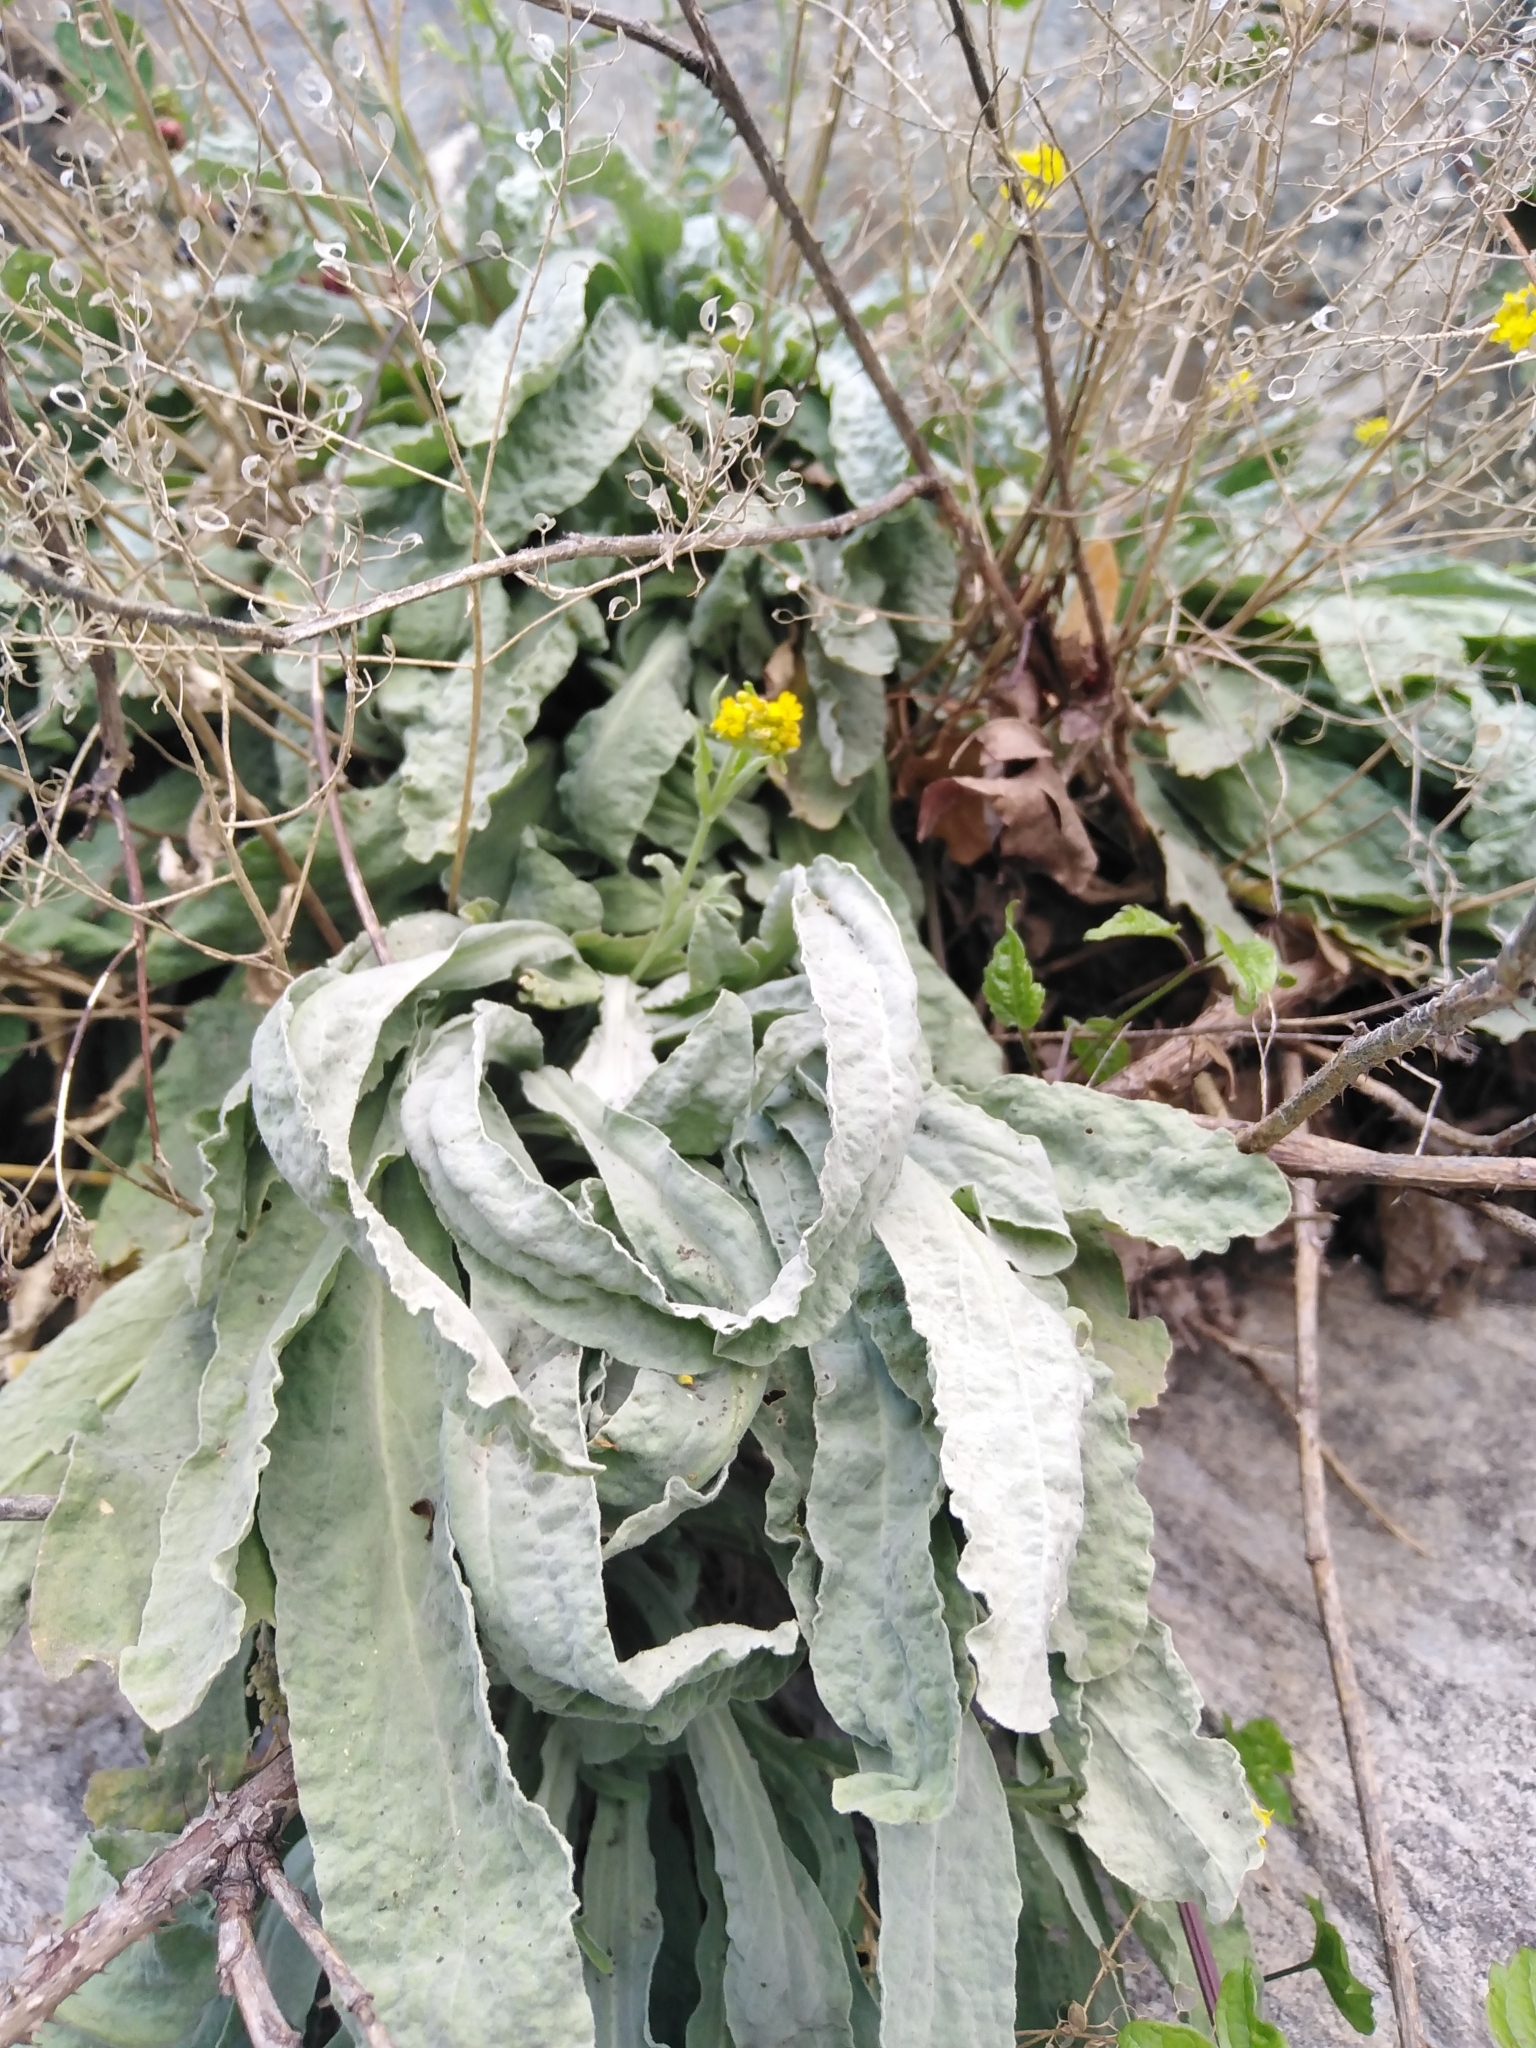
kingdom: Plantae
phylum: Tracheophyta
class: Magnoliopsida
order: Brassicales
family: Brassicaceae
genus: Aurinia
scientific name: Aurinia saxatilis
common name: Golden-tuft alyssum
